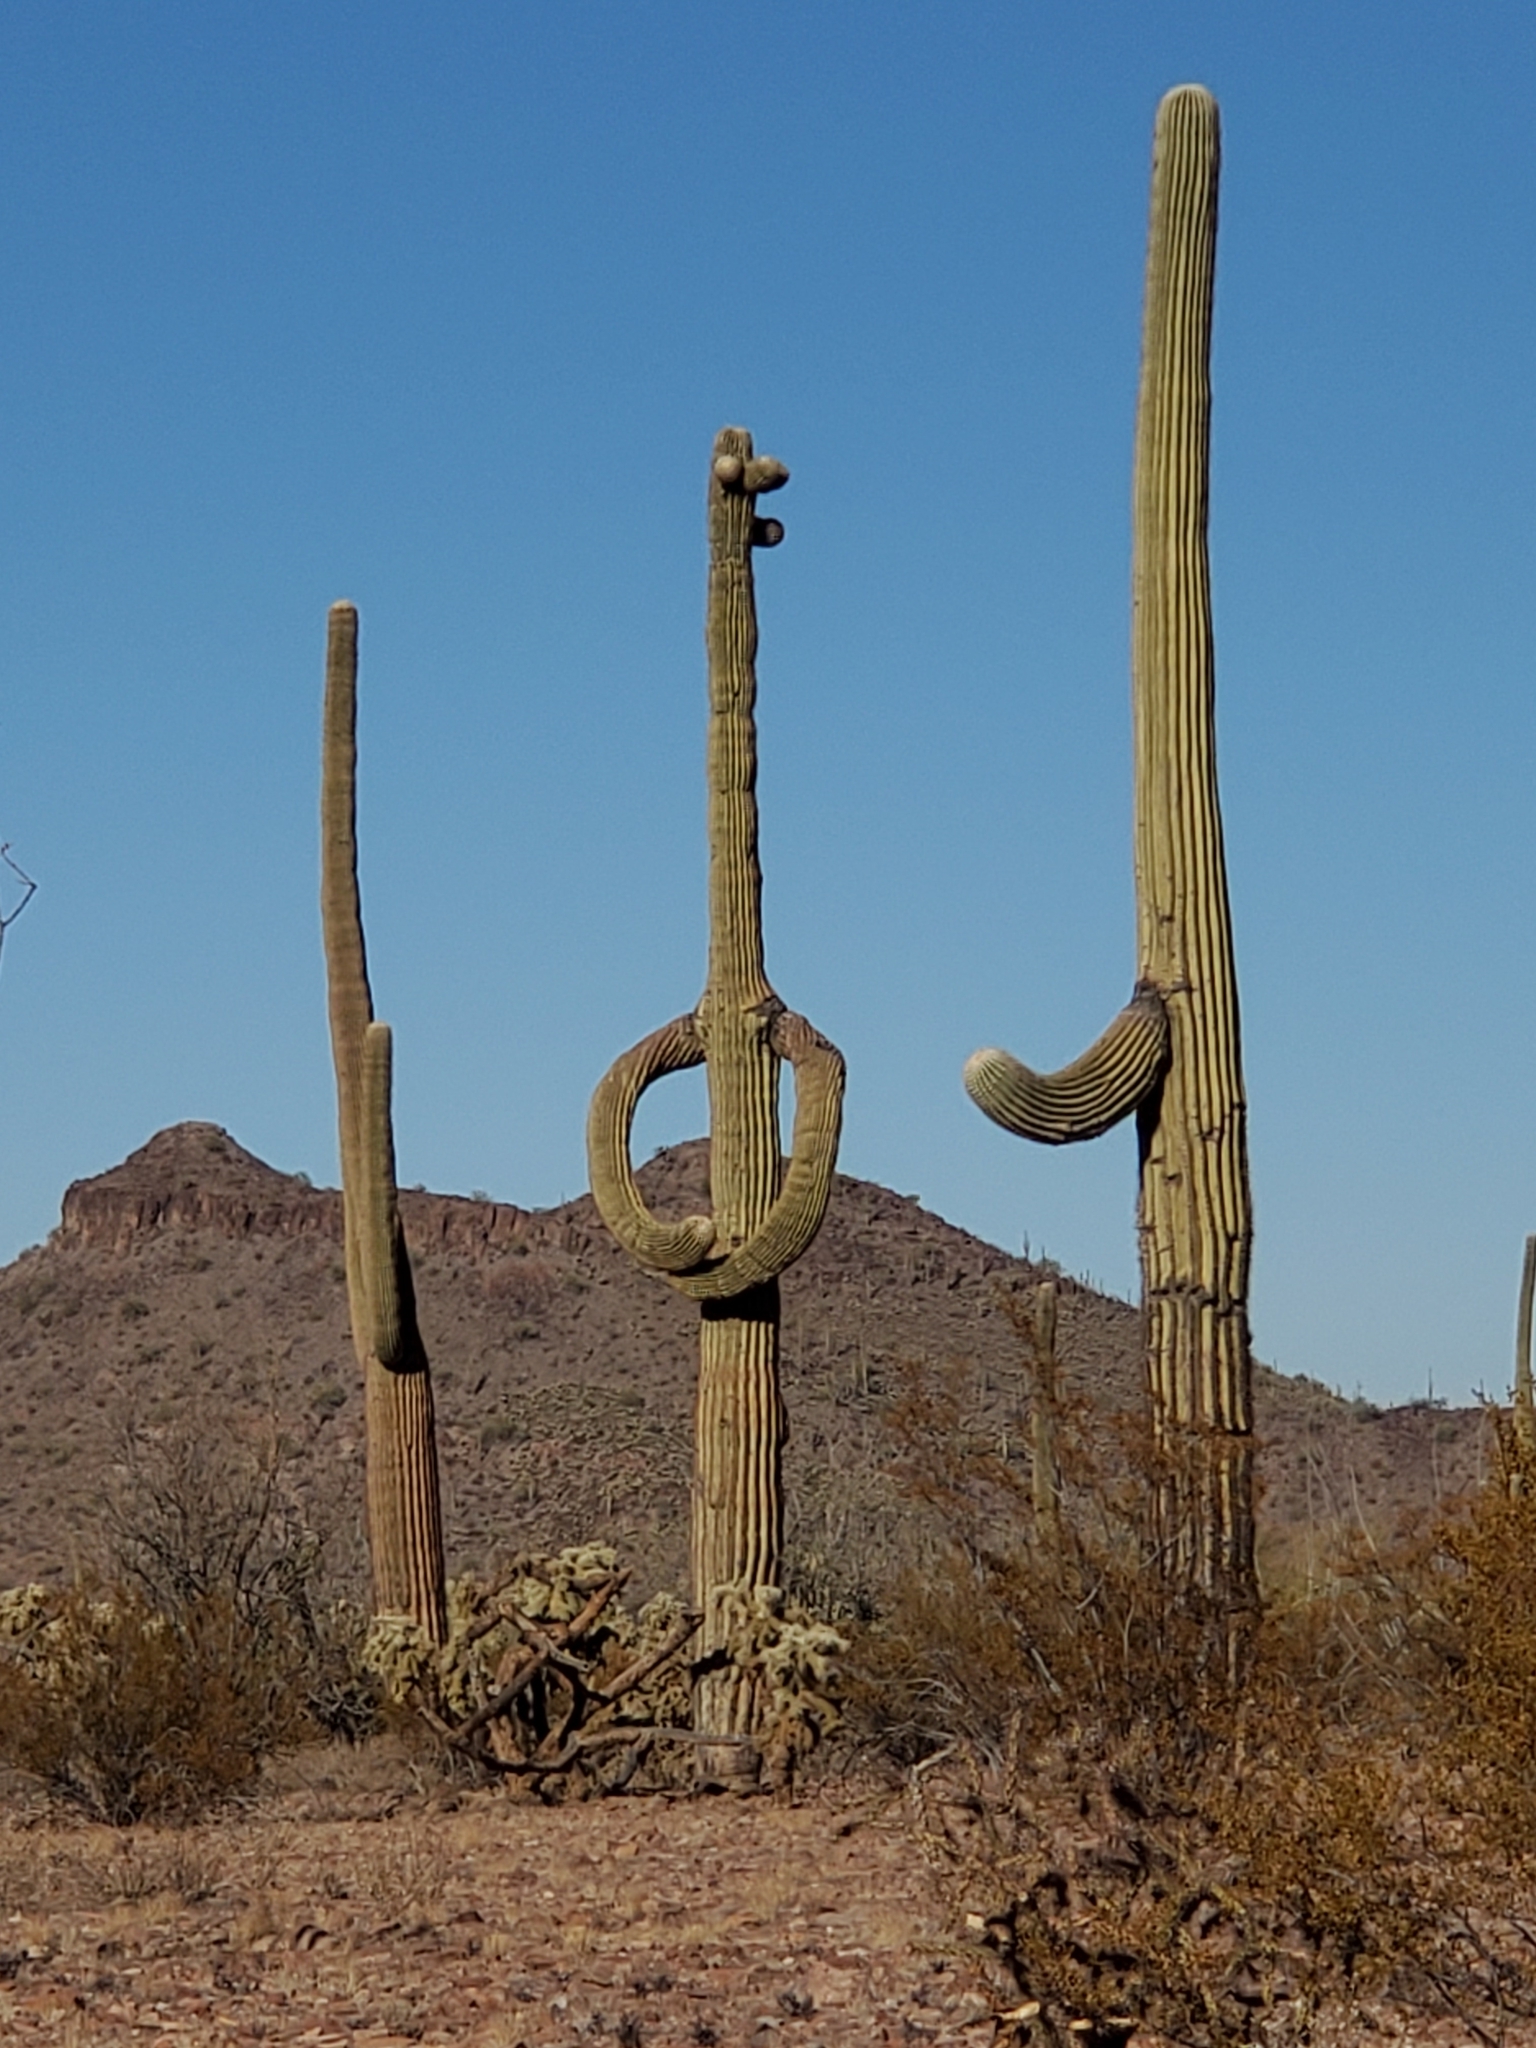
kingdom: Plantae
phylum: Tracheophyta
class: Magnoliopsida
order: Caryophyllales
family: Cactaceae
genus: Carnegiea
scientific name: Carnegiea gigantea
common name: Saguaro
